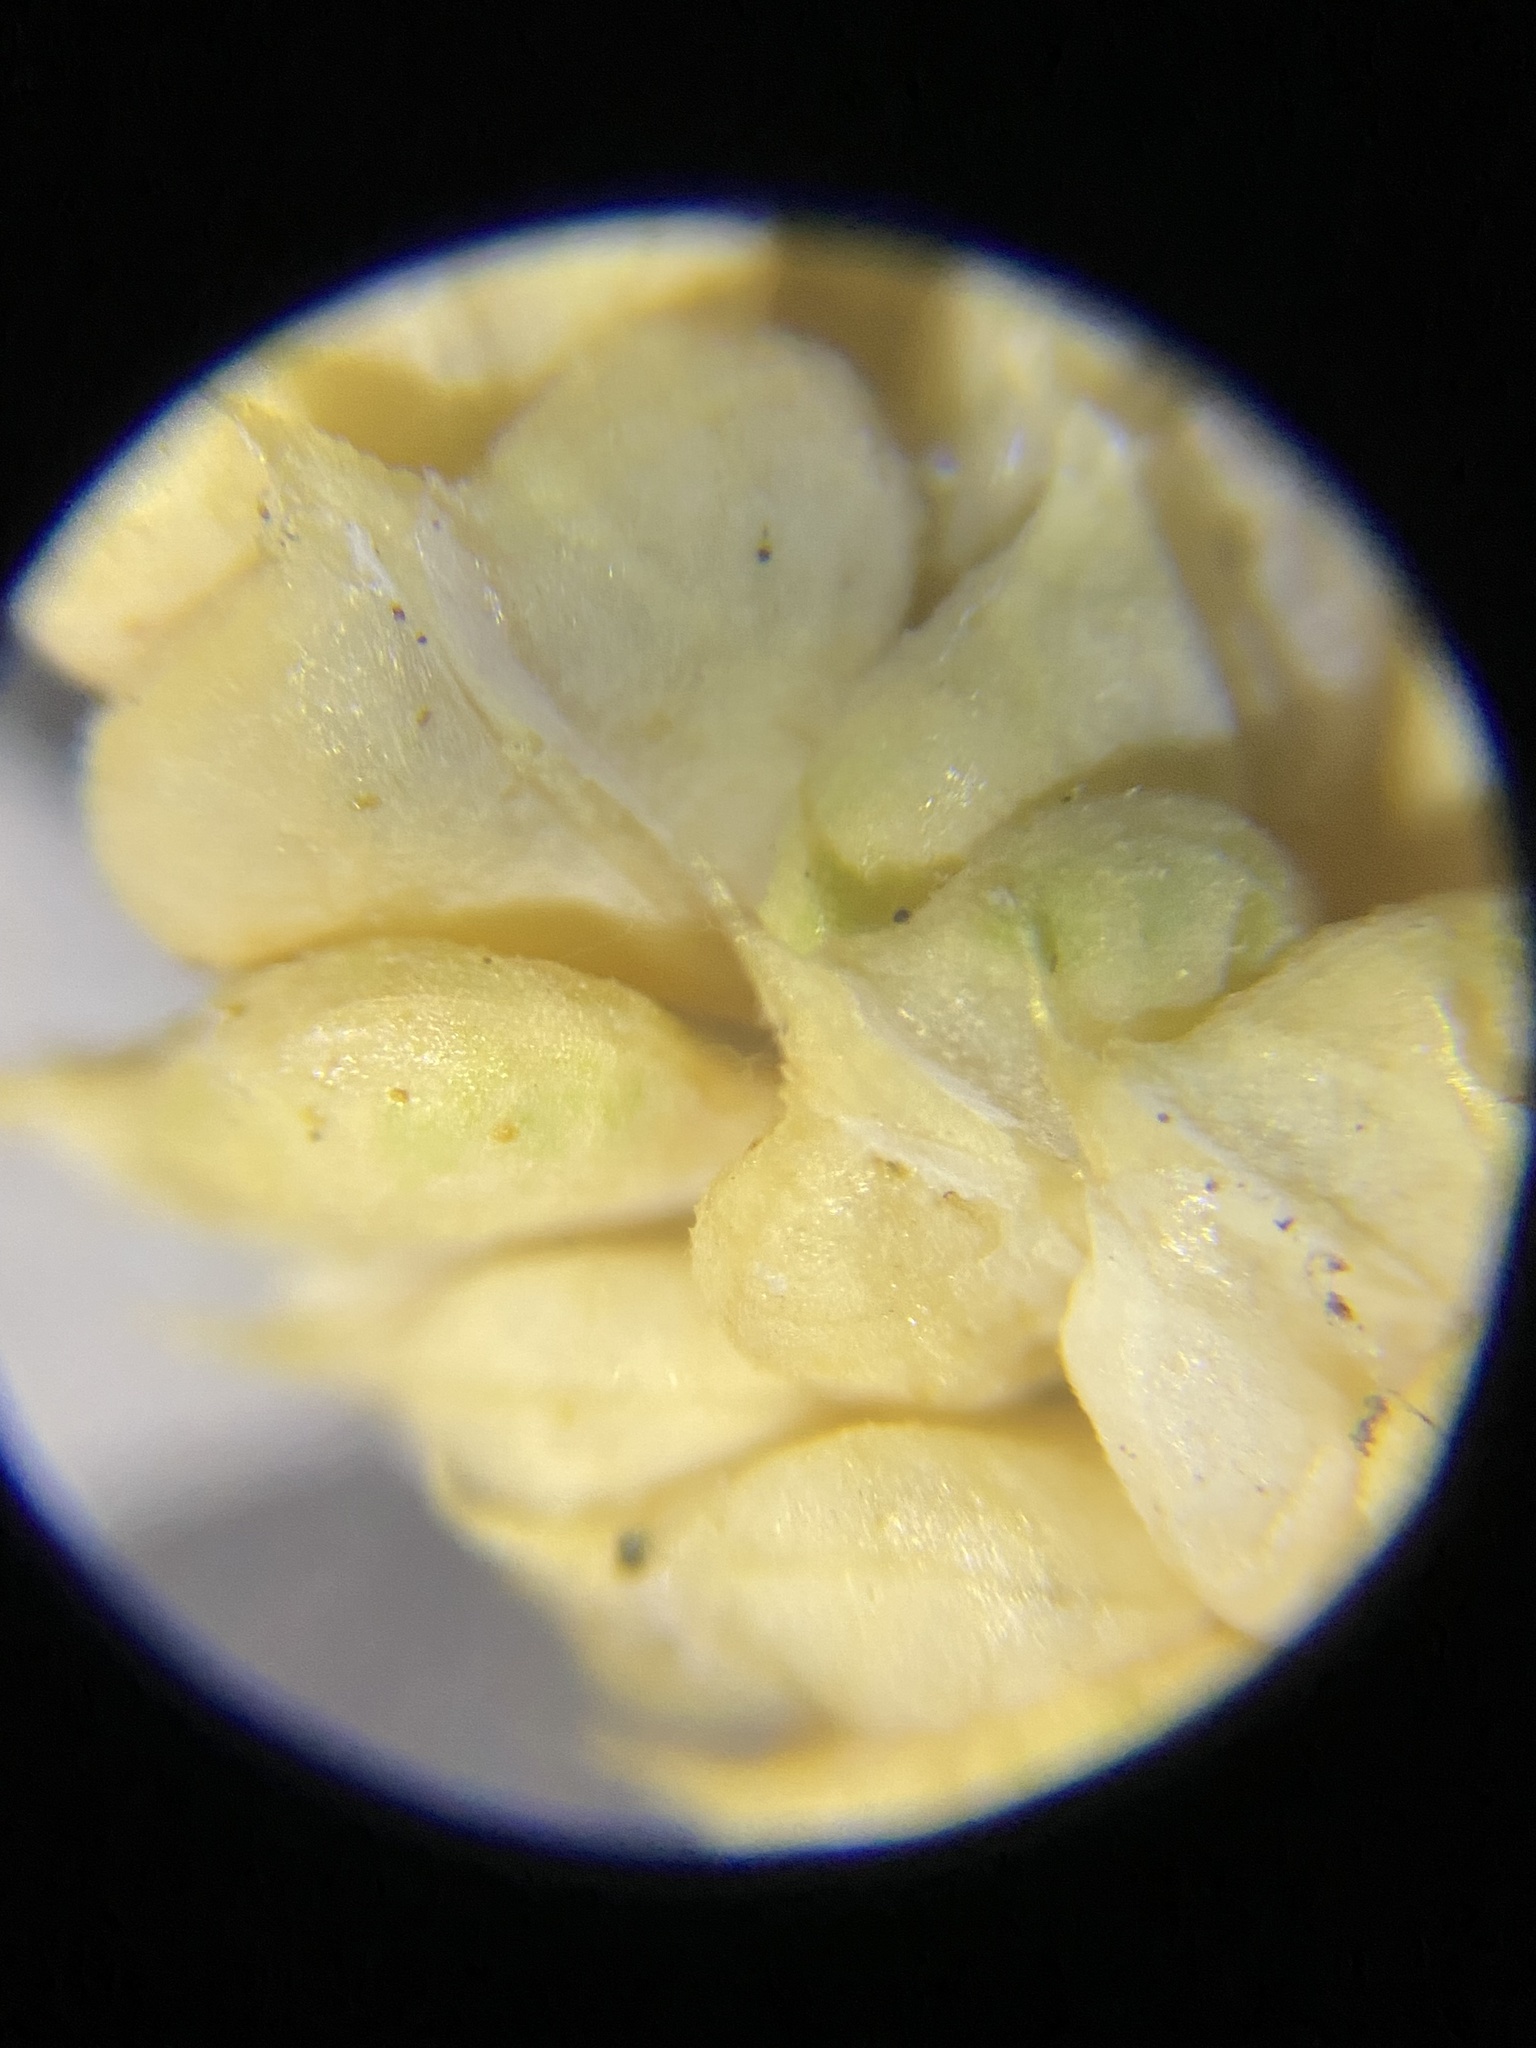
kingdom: Plantae
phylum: Tracheophyta
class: Liliopsida
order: Poales
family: Poaceae
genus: Beckmannia
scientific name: Beckmannia syzigachne
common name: American slough-grass
